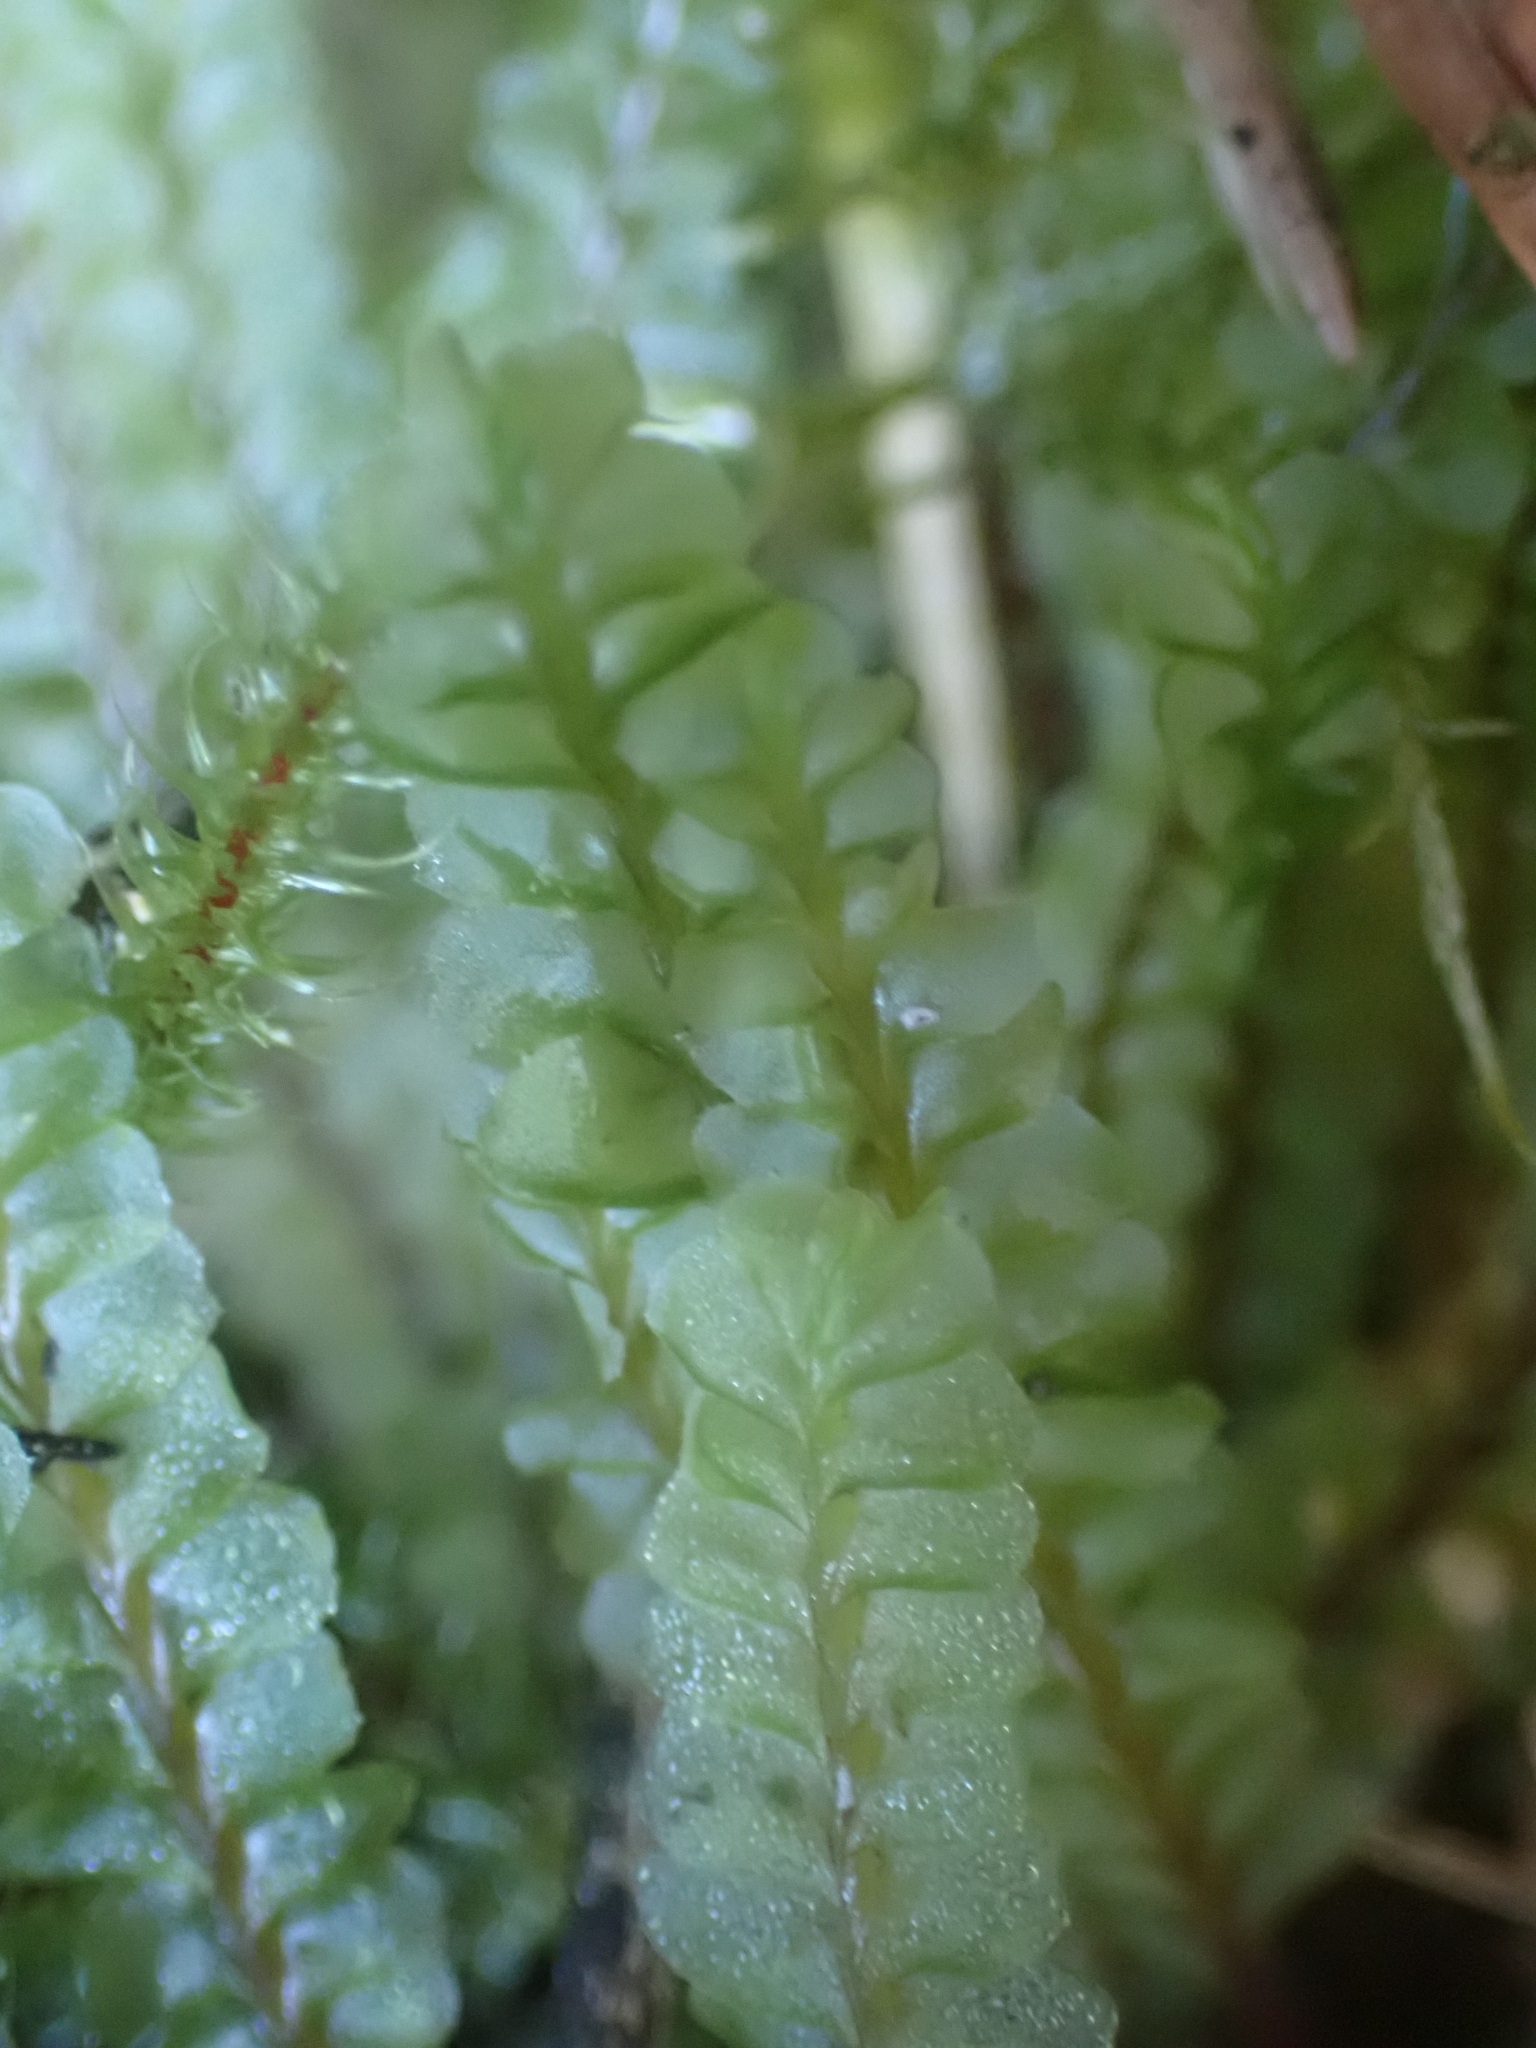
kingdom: Plantae
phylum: Marchantiophyta
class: Jungermanniopsida
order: Jungermanniales
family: Plagiochilaceae
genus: Plagiochila
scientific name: Plagiochila asplenioides
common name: Greater featherwort
